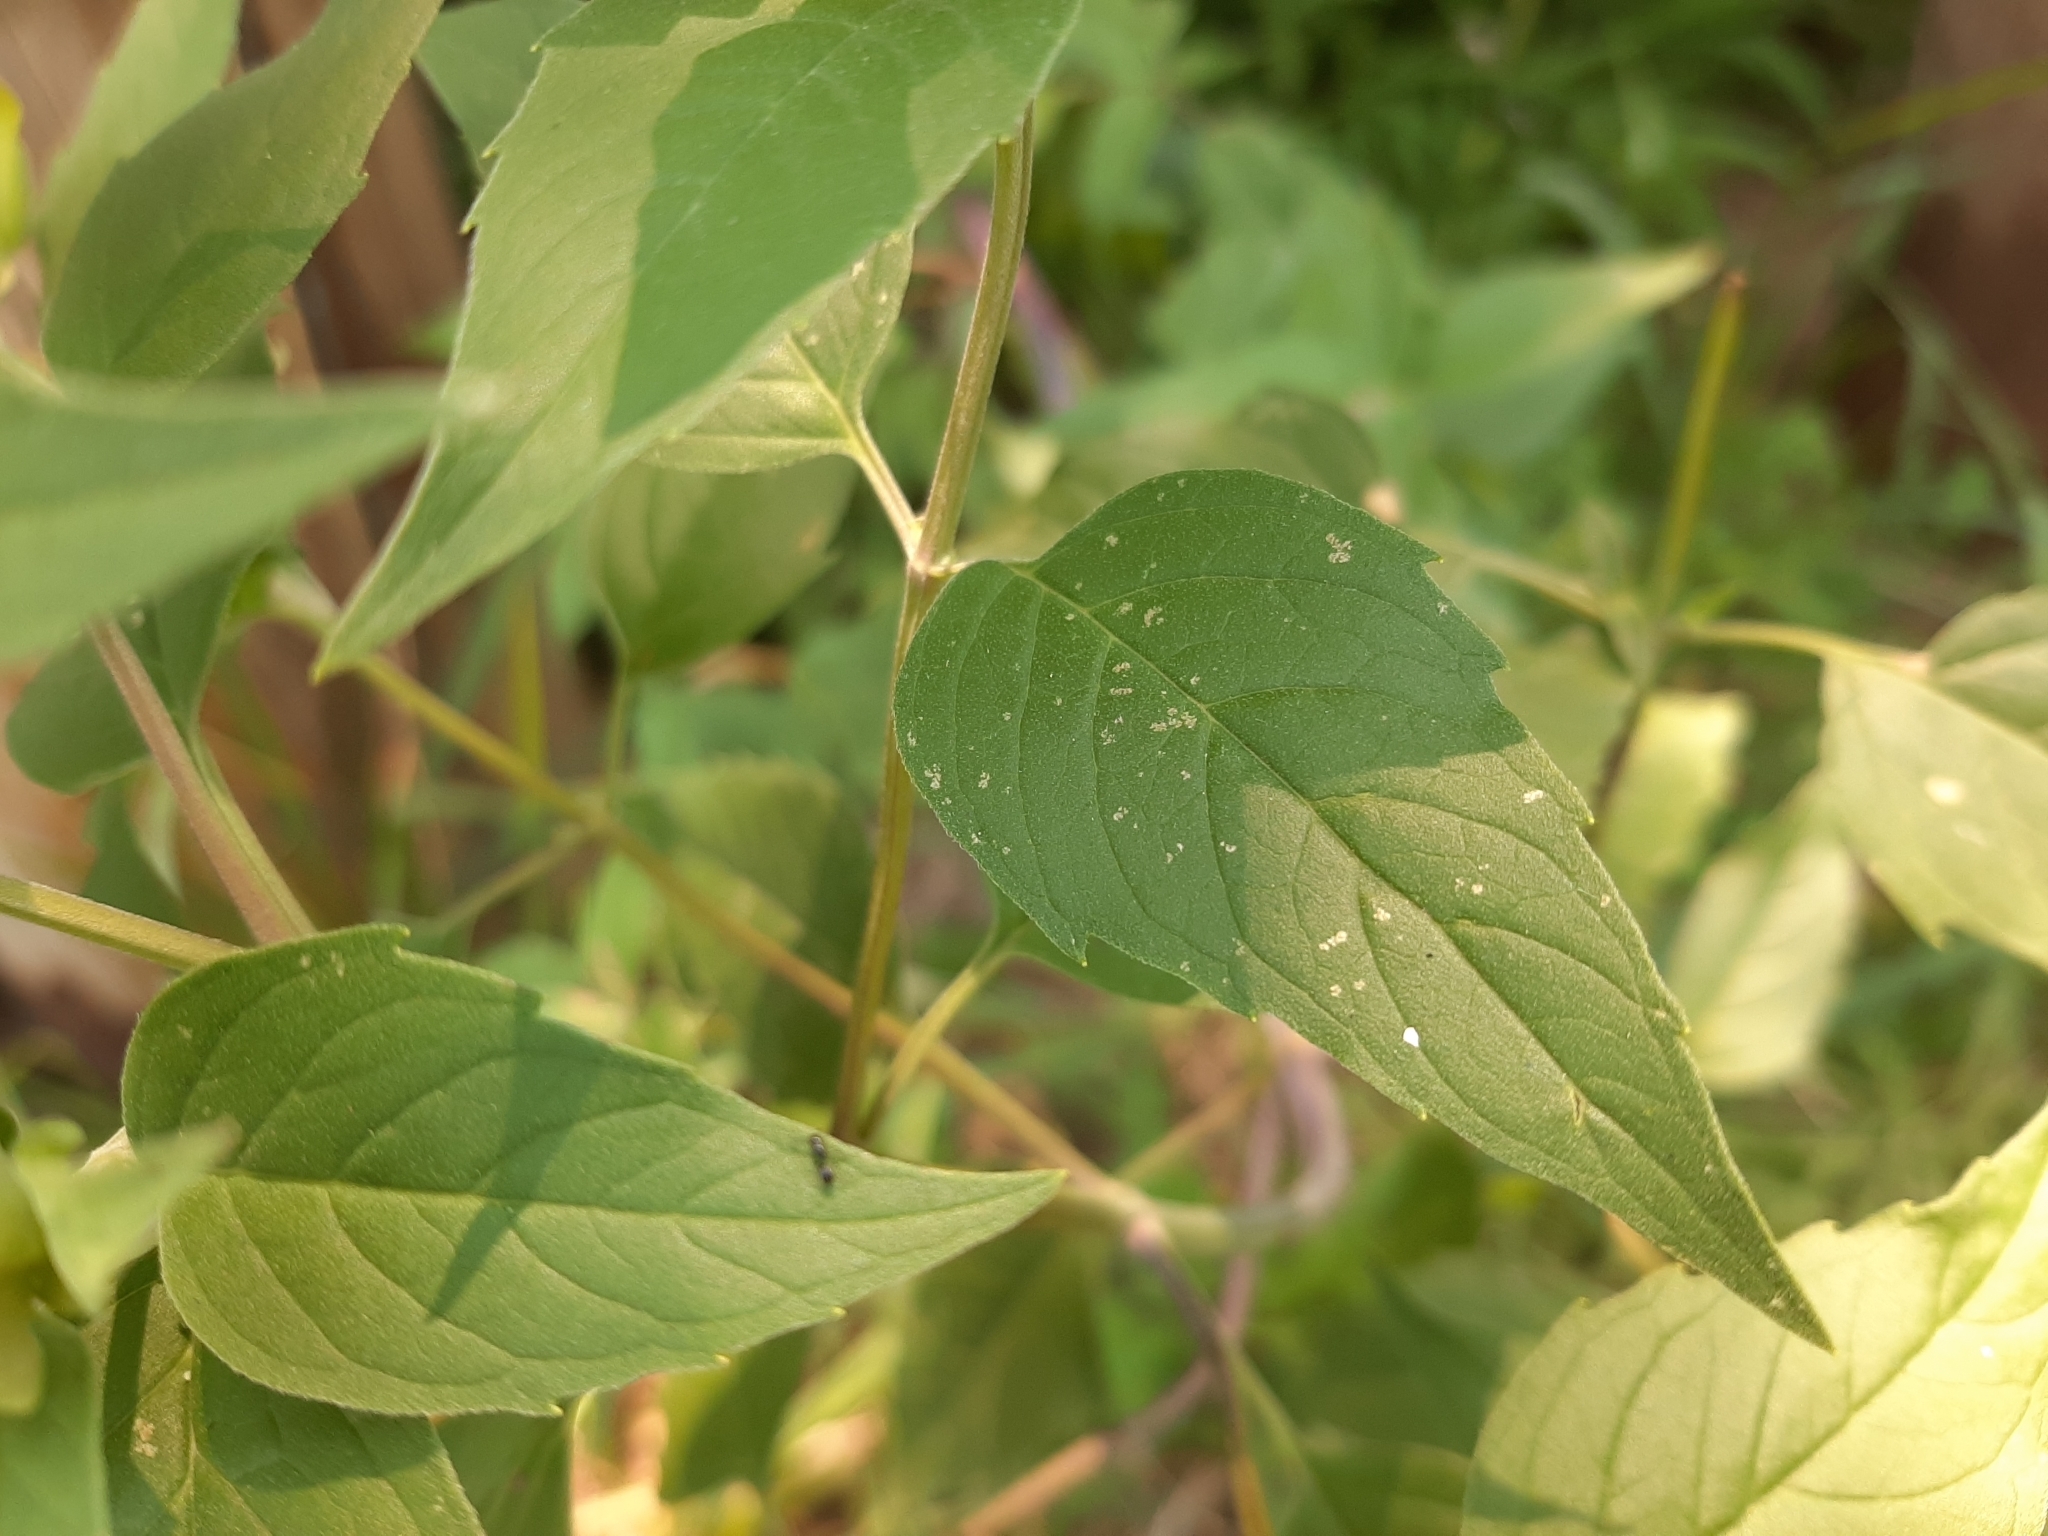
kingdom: Plantae
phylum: Tracheophyta
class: Magnoliopsida
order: Lamiales
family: Lamiaceae
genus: Monarda
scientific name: Monarda fistulosa
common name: Purple beebalm
